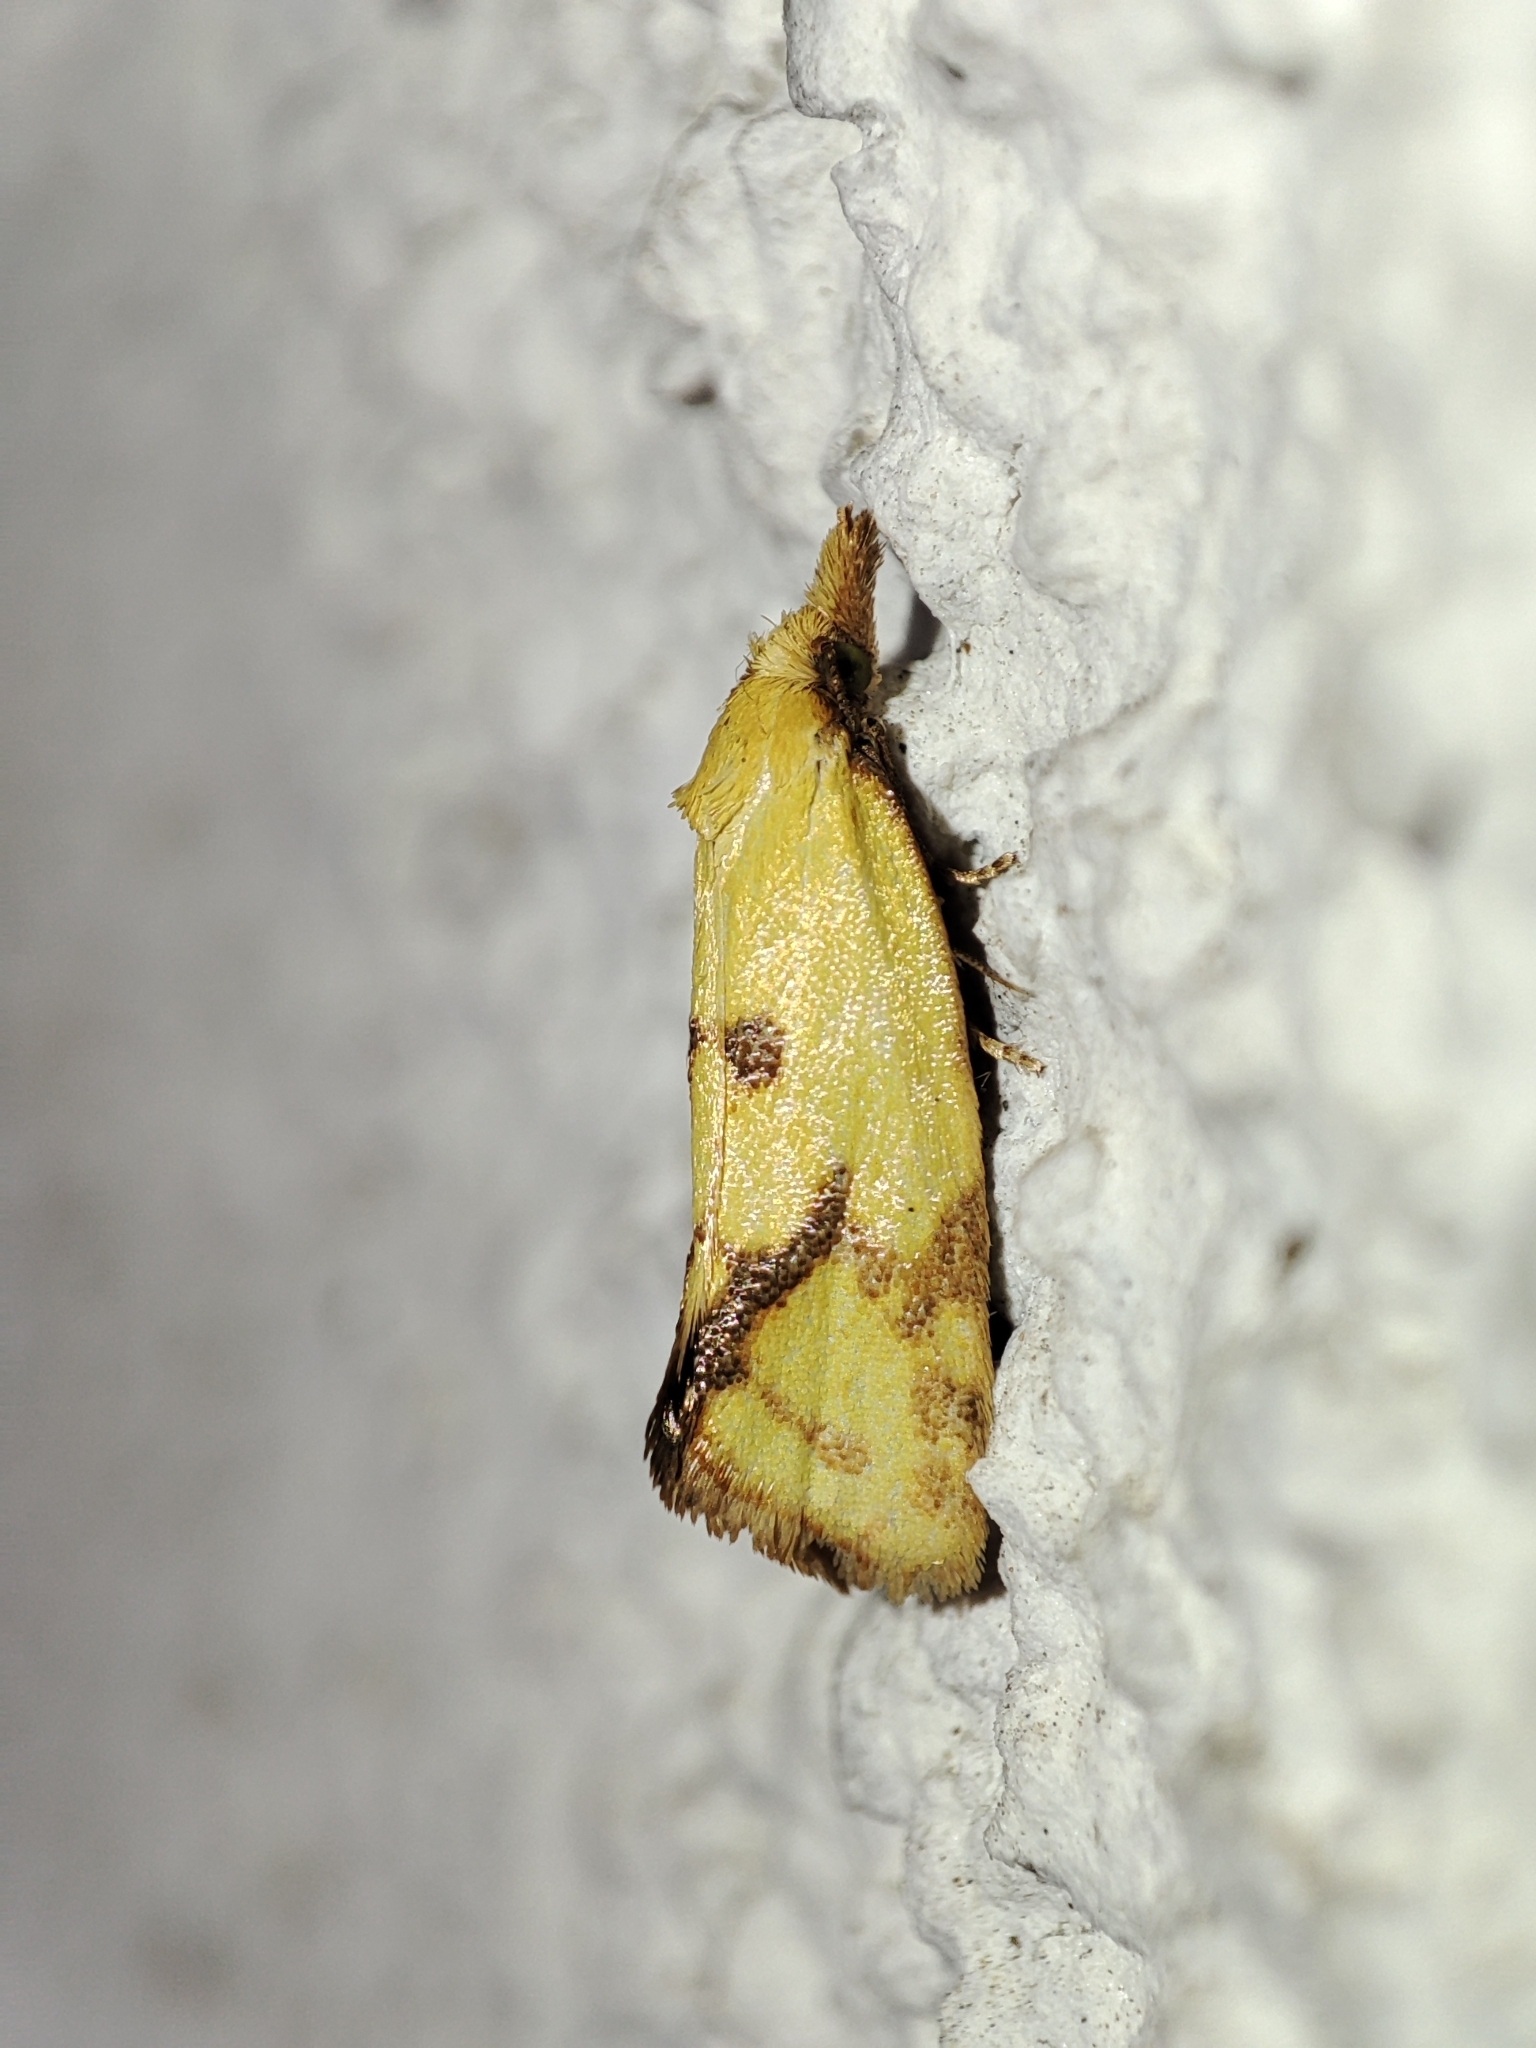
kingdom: Animalia
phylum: Arthropoda
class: Insecta
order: Lepidoptera
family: Tortricidae
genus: Agapeta
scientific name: Agapeta hamana
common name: Common yellow conch
